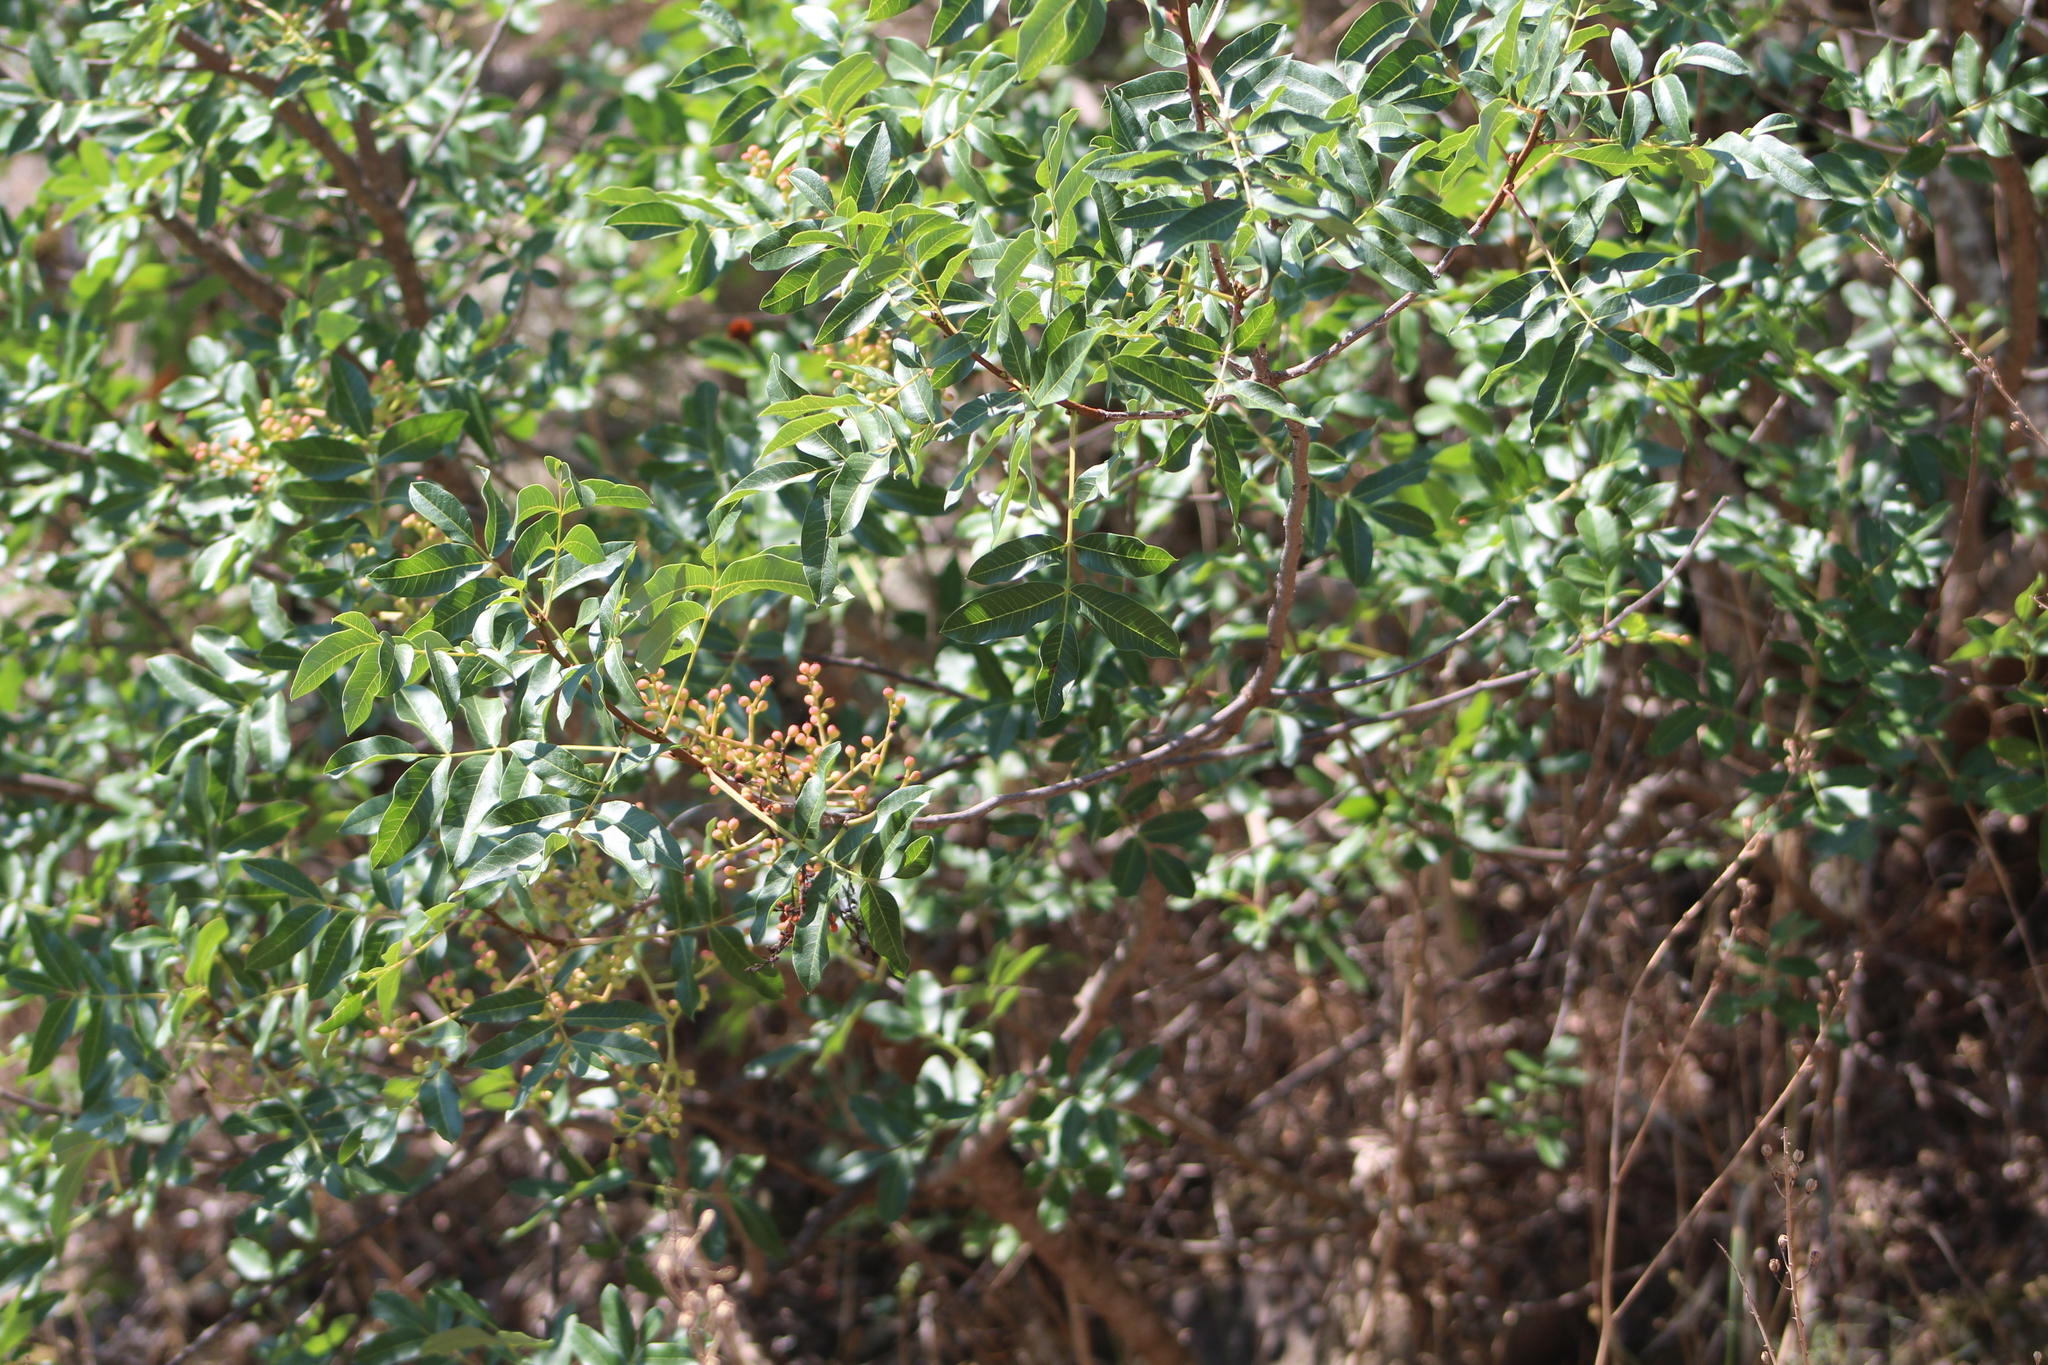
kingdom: Plantae
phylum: Tracheophyta
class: Magnoliopsida
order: Sapindales
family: Anacardiaceae
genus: Pistacia
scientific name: Pistacia terebinthus
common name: Terebinth
